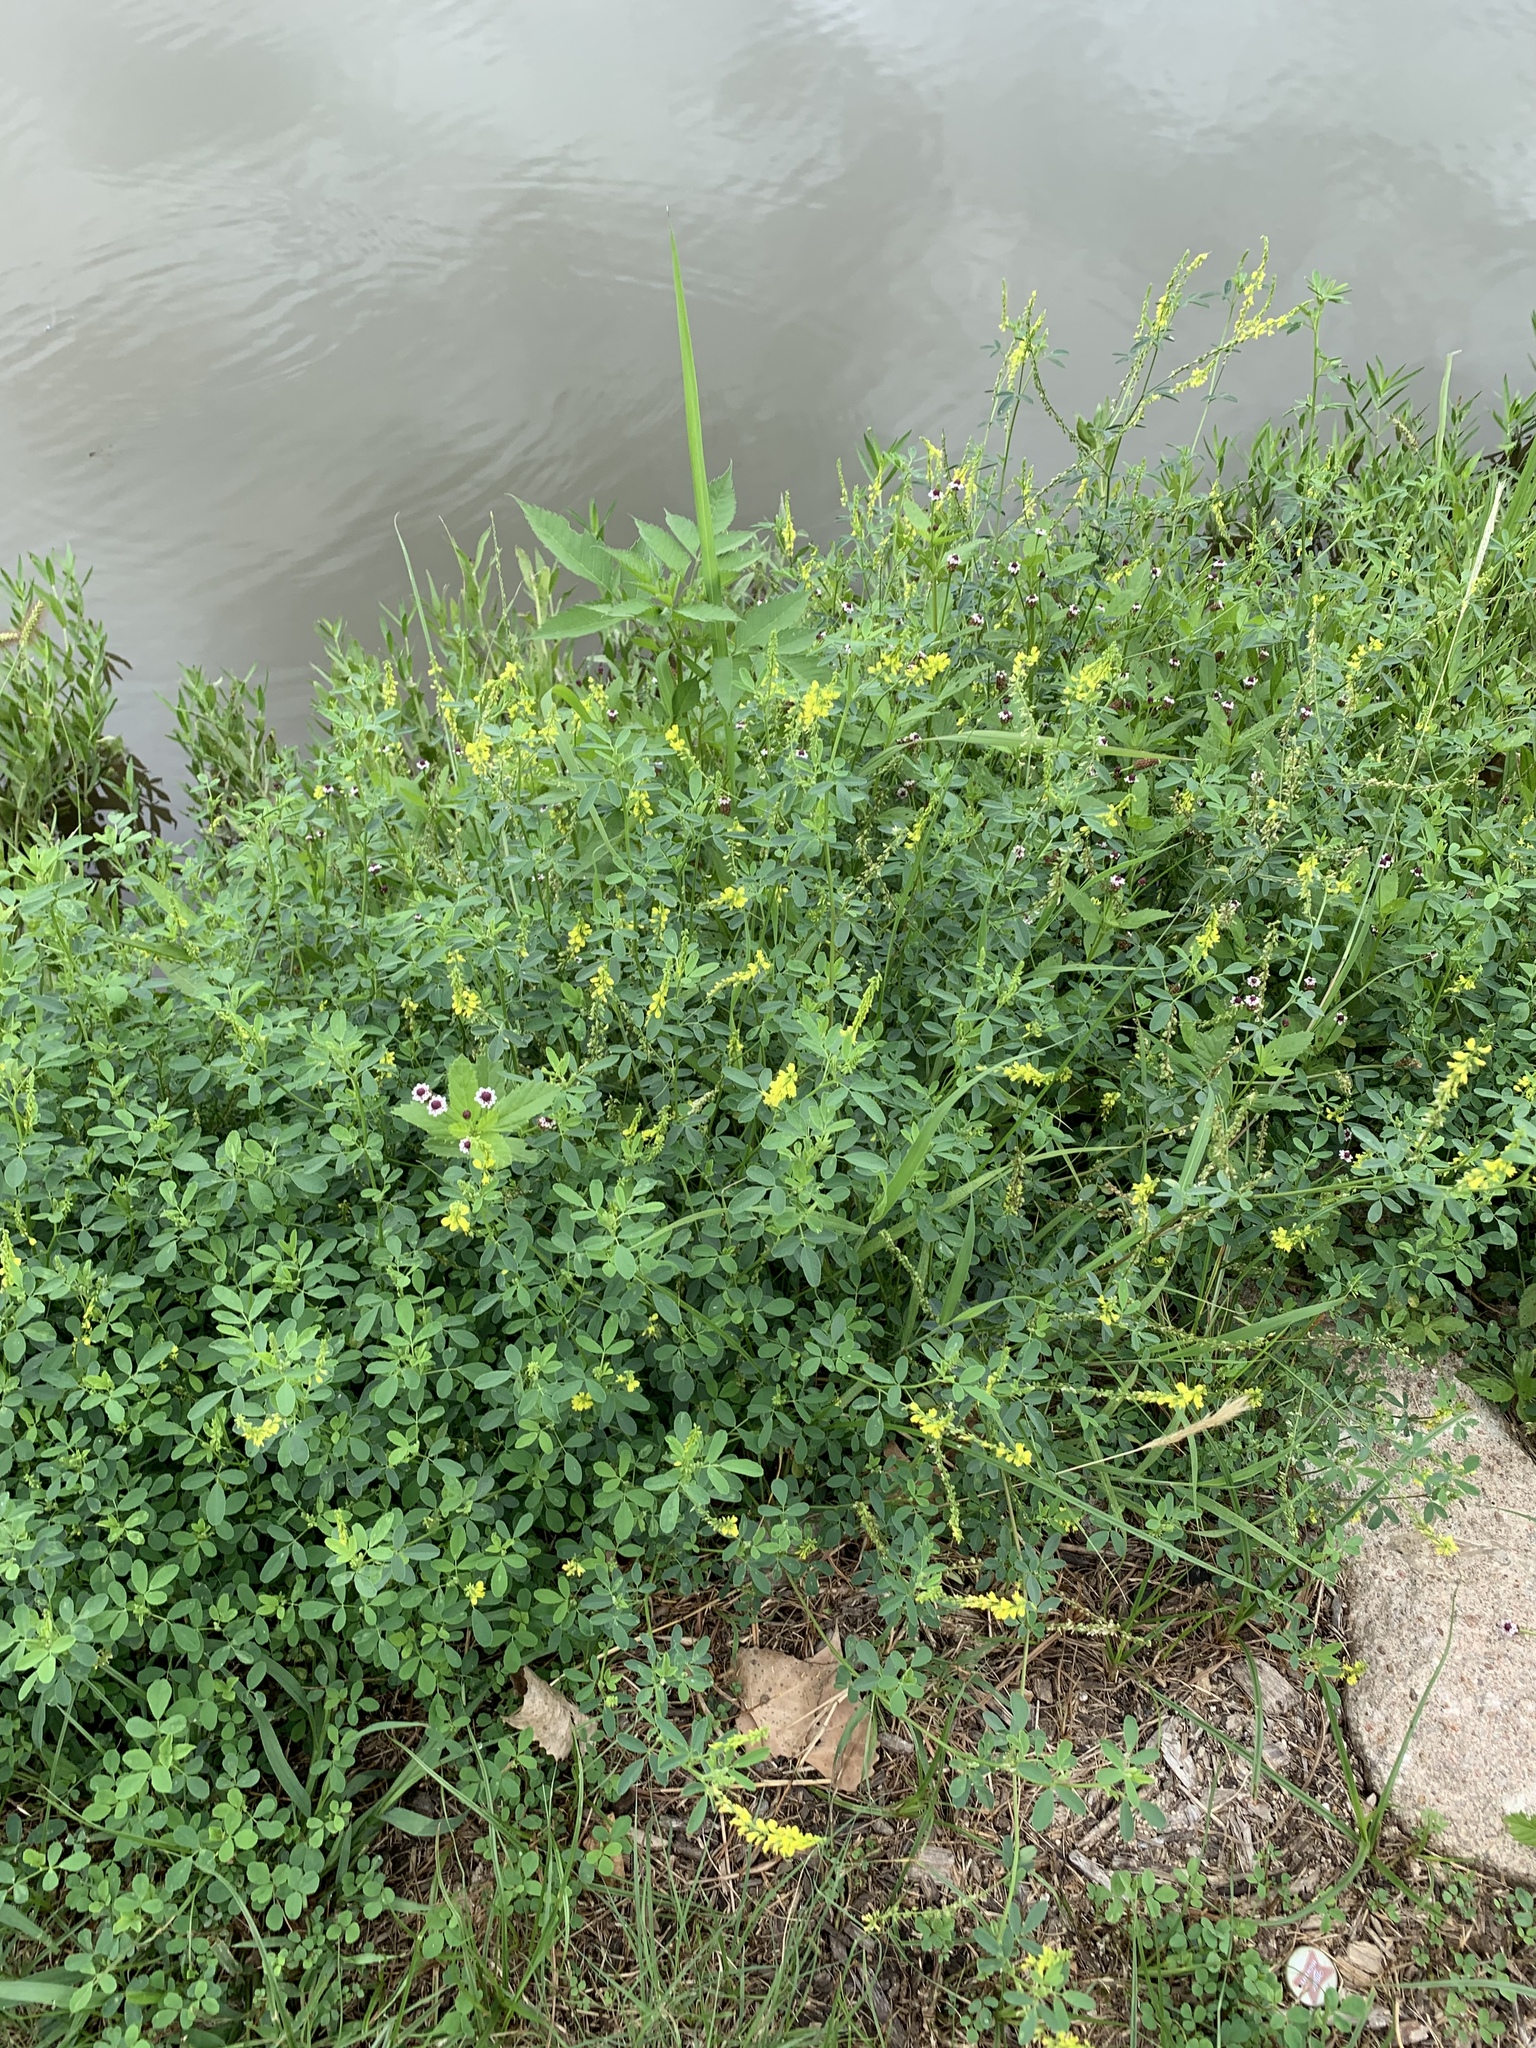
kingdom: Plantae
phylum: Tracheophyta
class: Magnoliopsida
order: Fabales
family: Fabaceae
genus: Melilotus
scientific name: Melilotus officinalis
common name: Sweetclover
